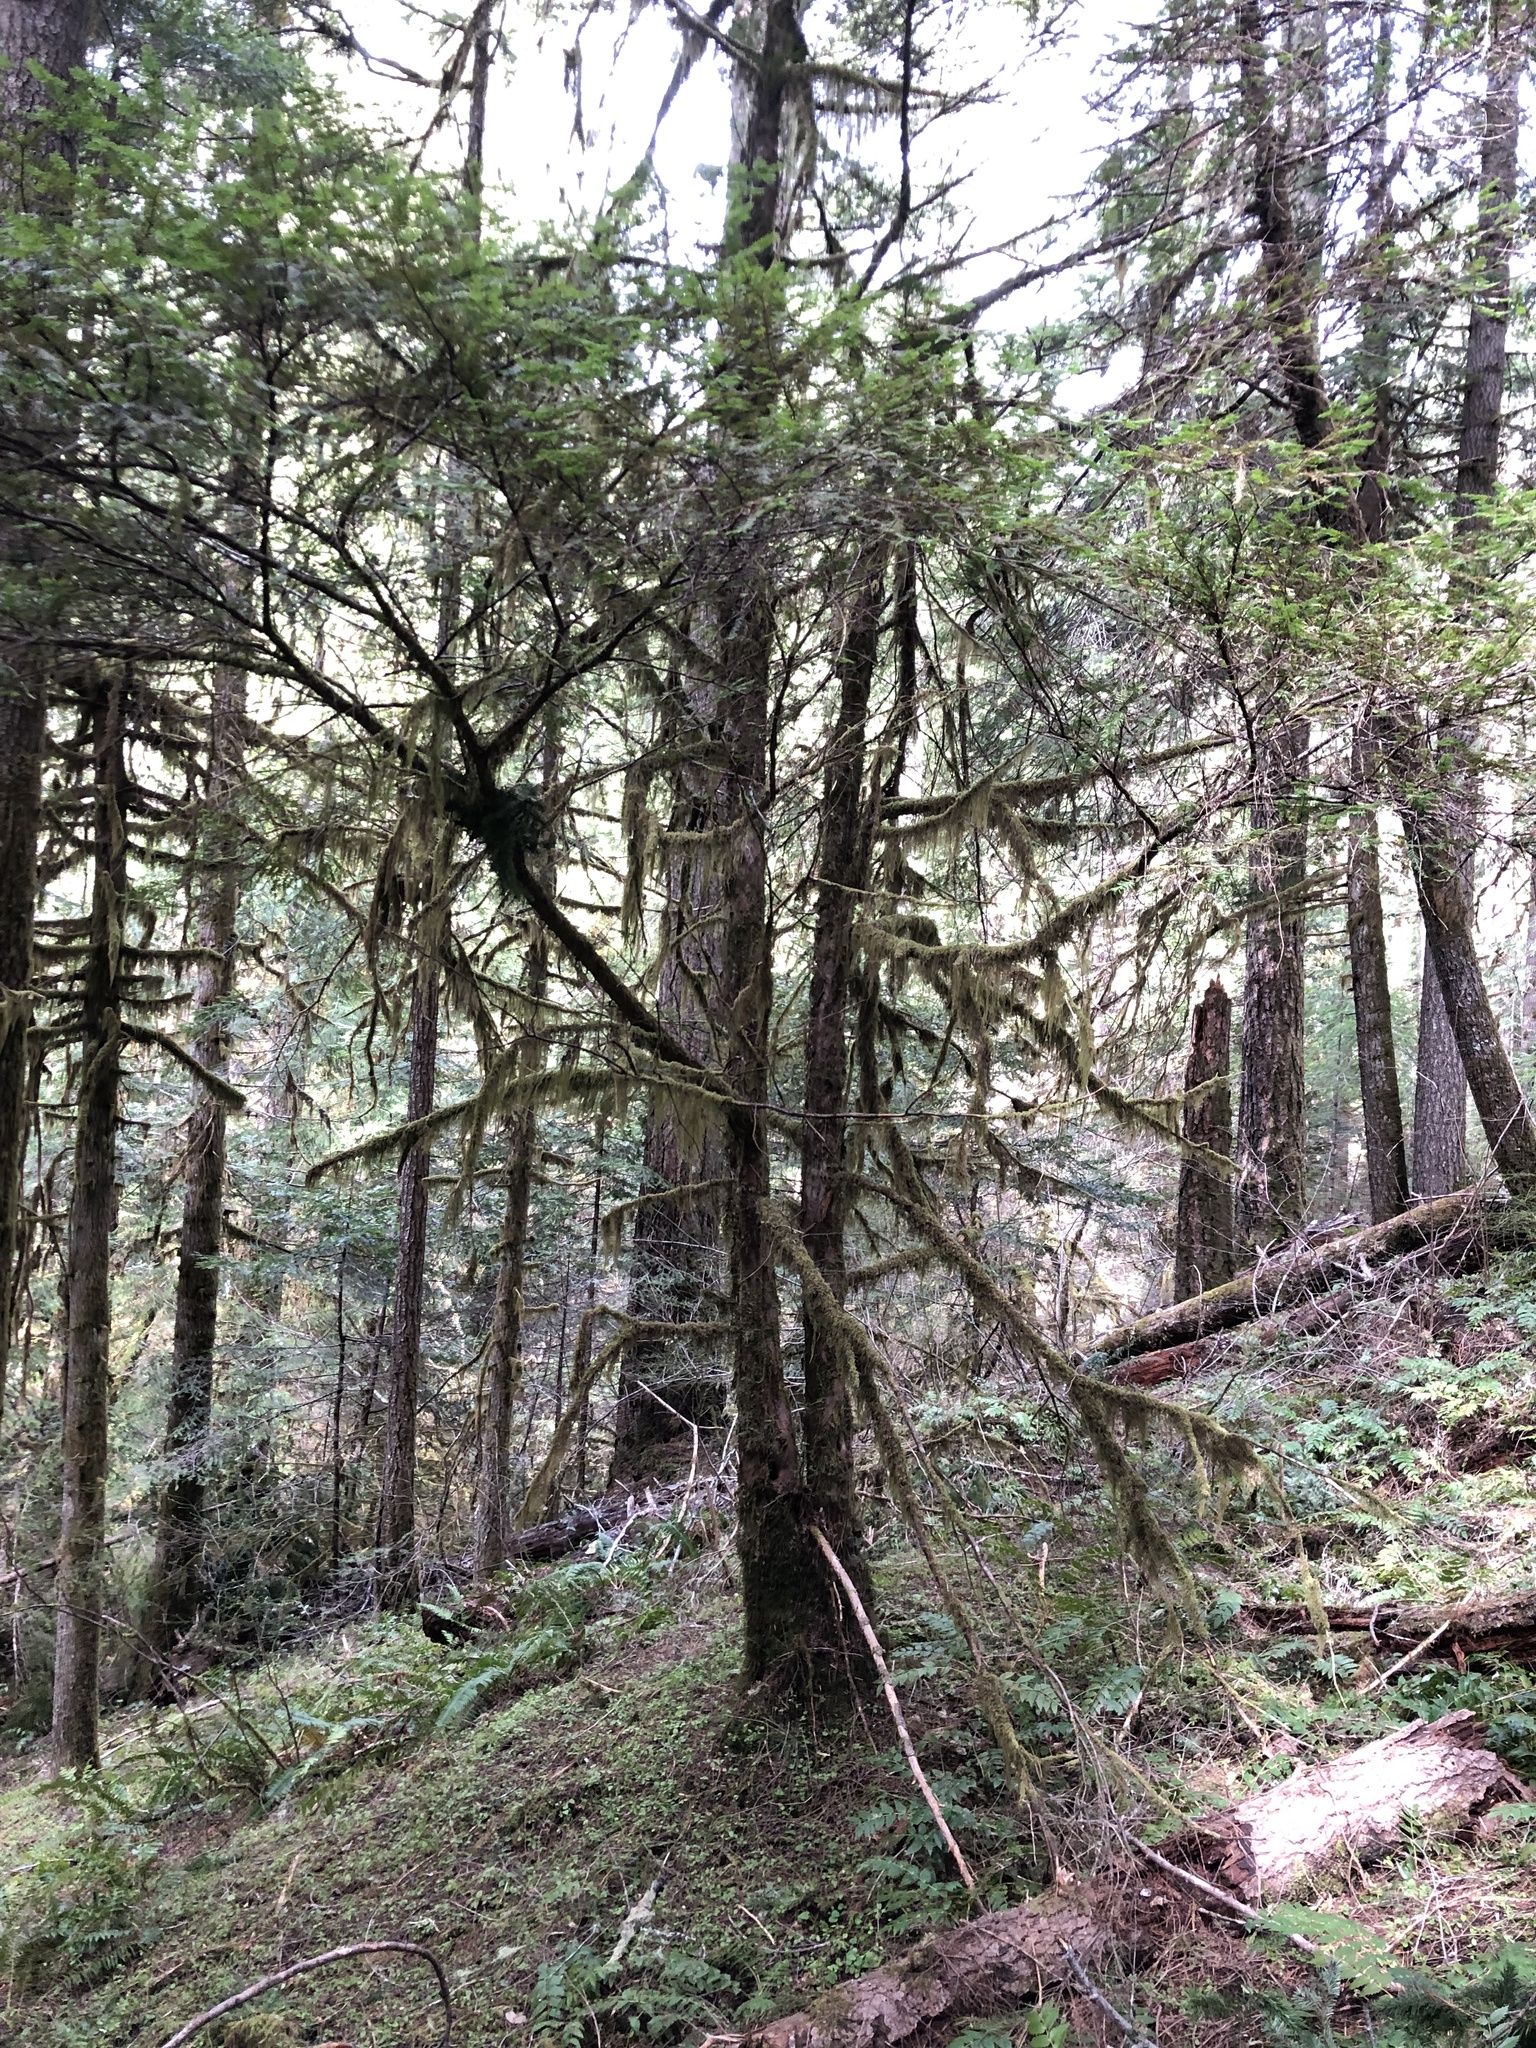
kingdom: Plantae
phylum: Tracheophyta
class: Pinopsida
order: Pinales
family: Taxaceae
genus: Taxus
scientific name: Taxus brevifolia
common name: Pacific yew
